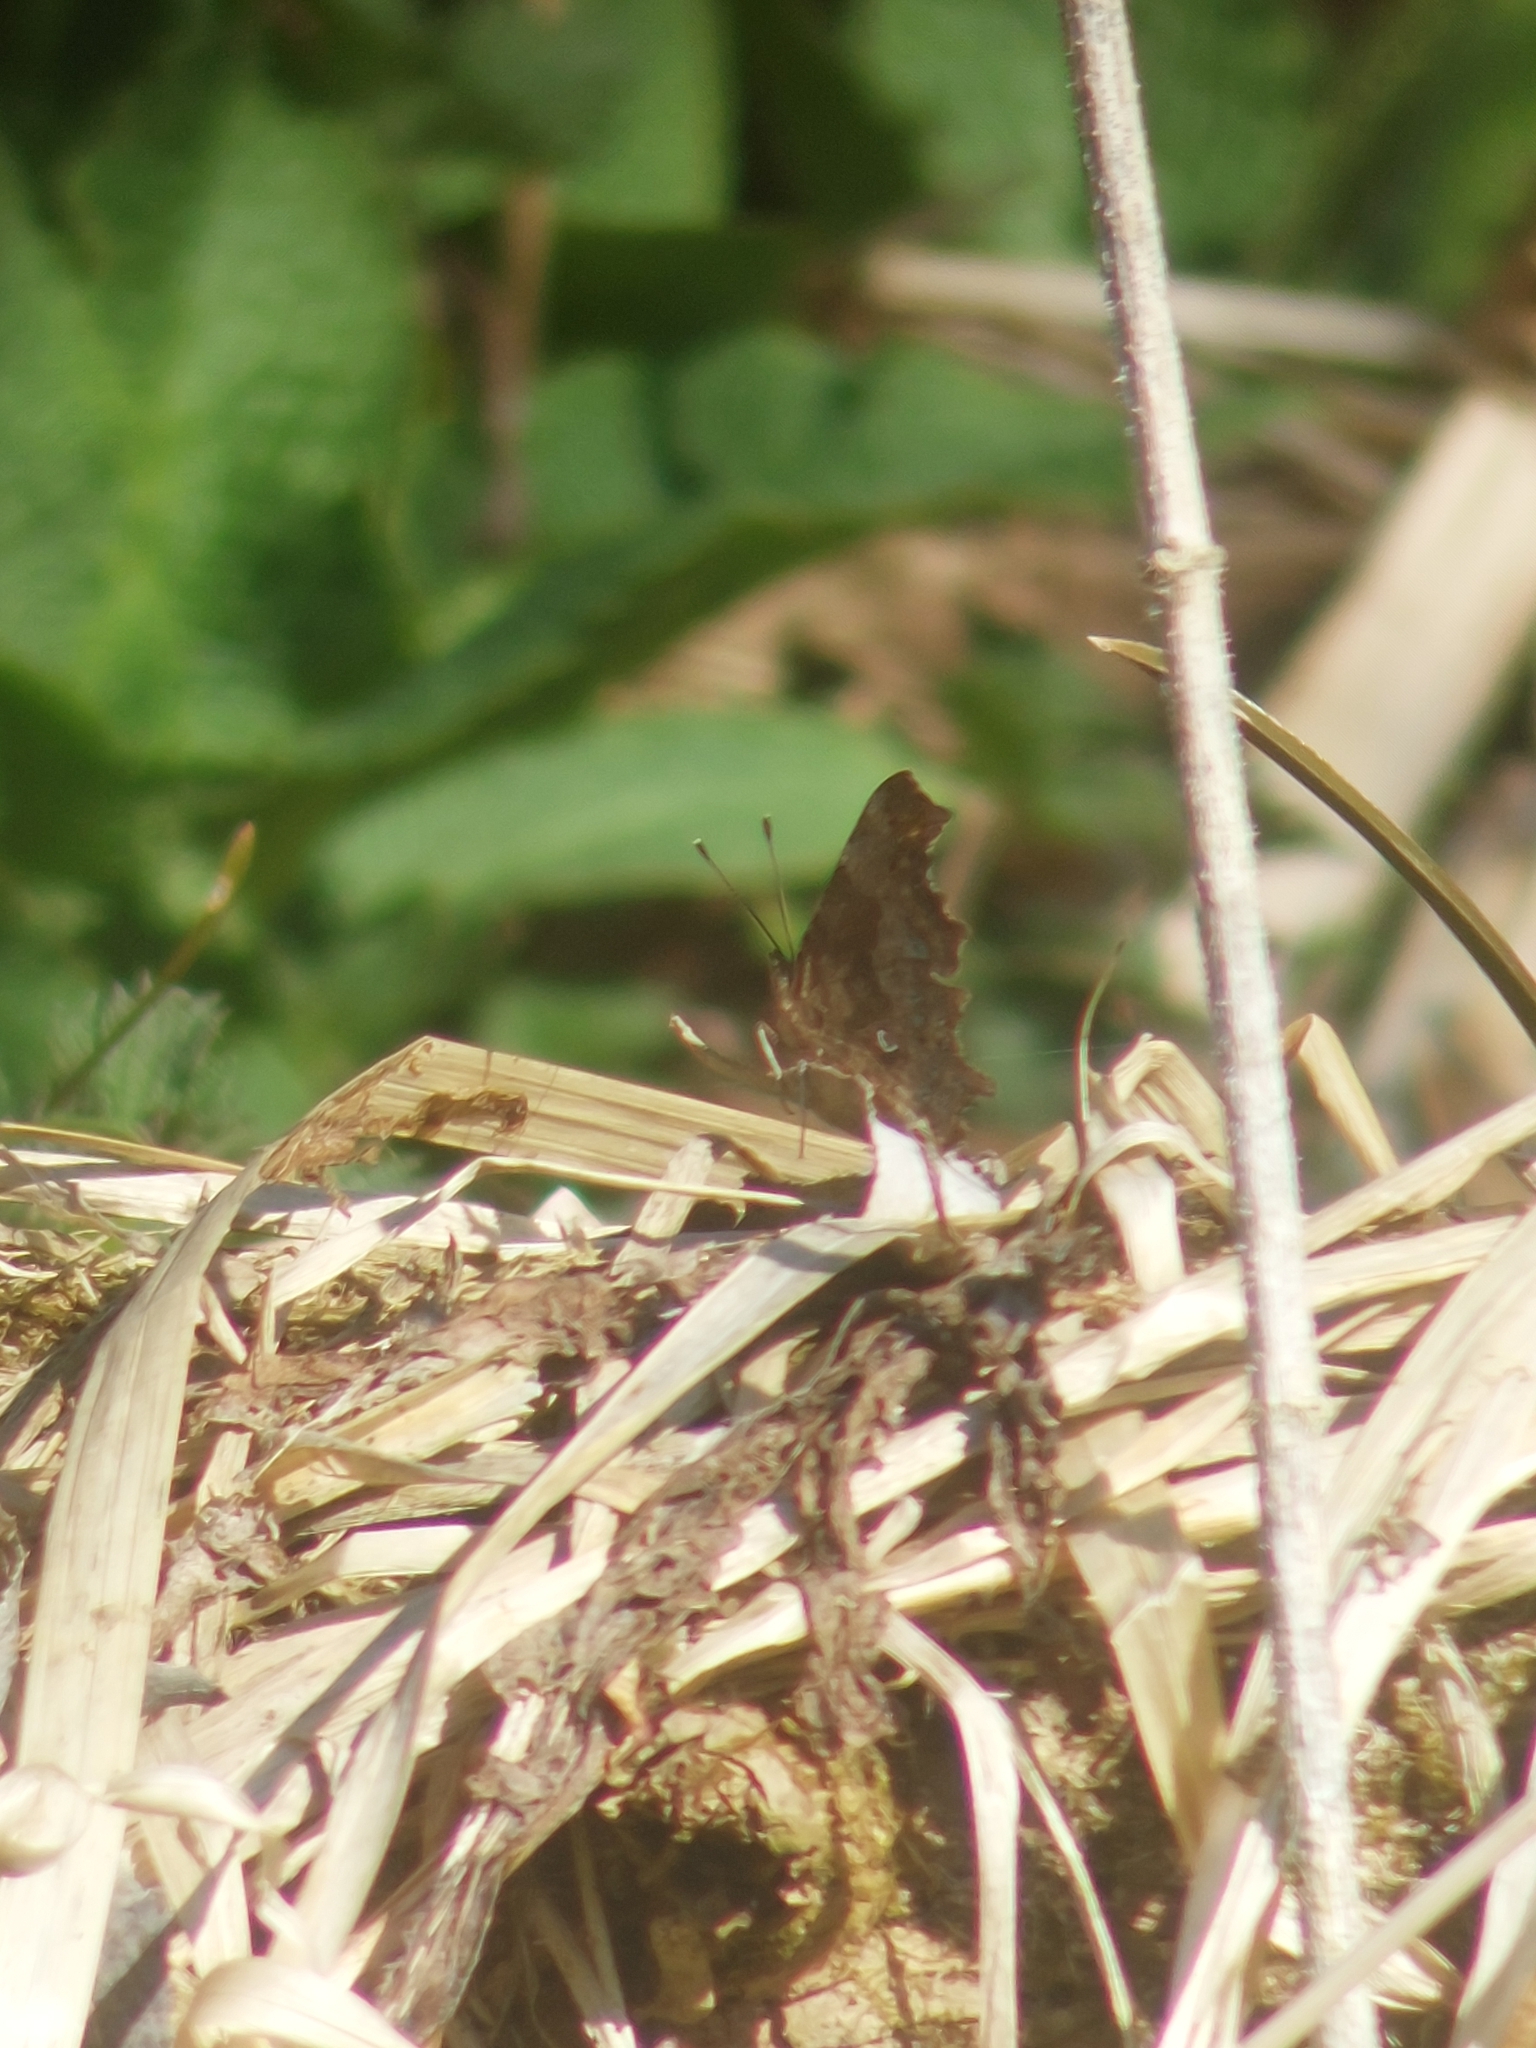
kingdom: Animalia
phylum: Arthropoda
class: Insecta
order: Lepidoptera
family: Nymphalidae
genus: Polygonia
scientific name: Polygonia c-album
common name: Comma
